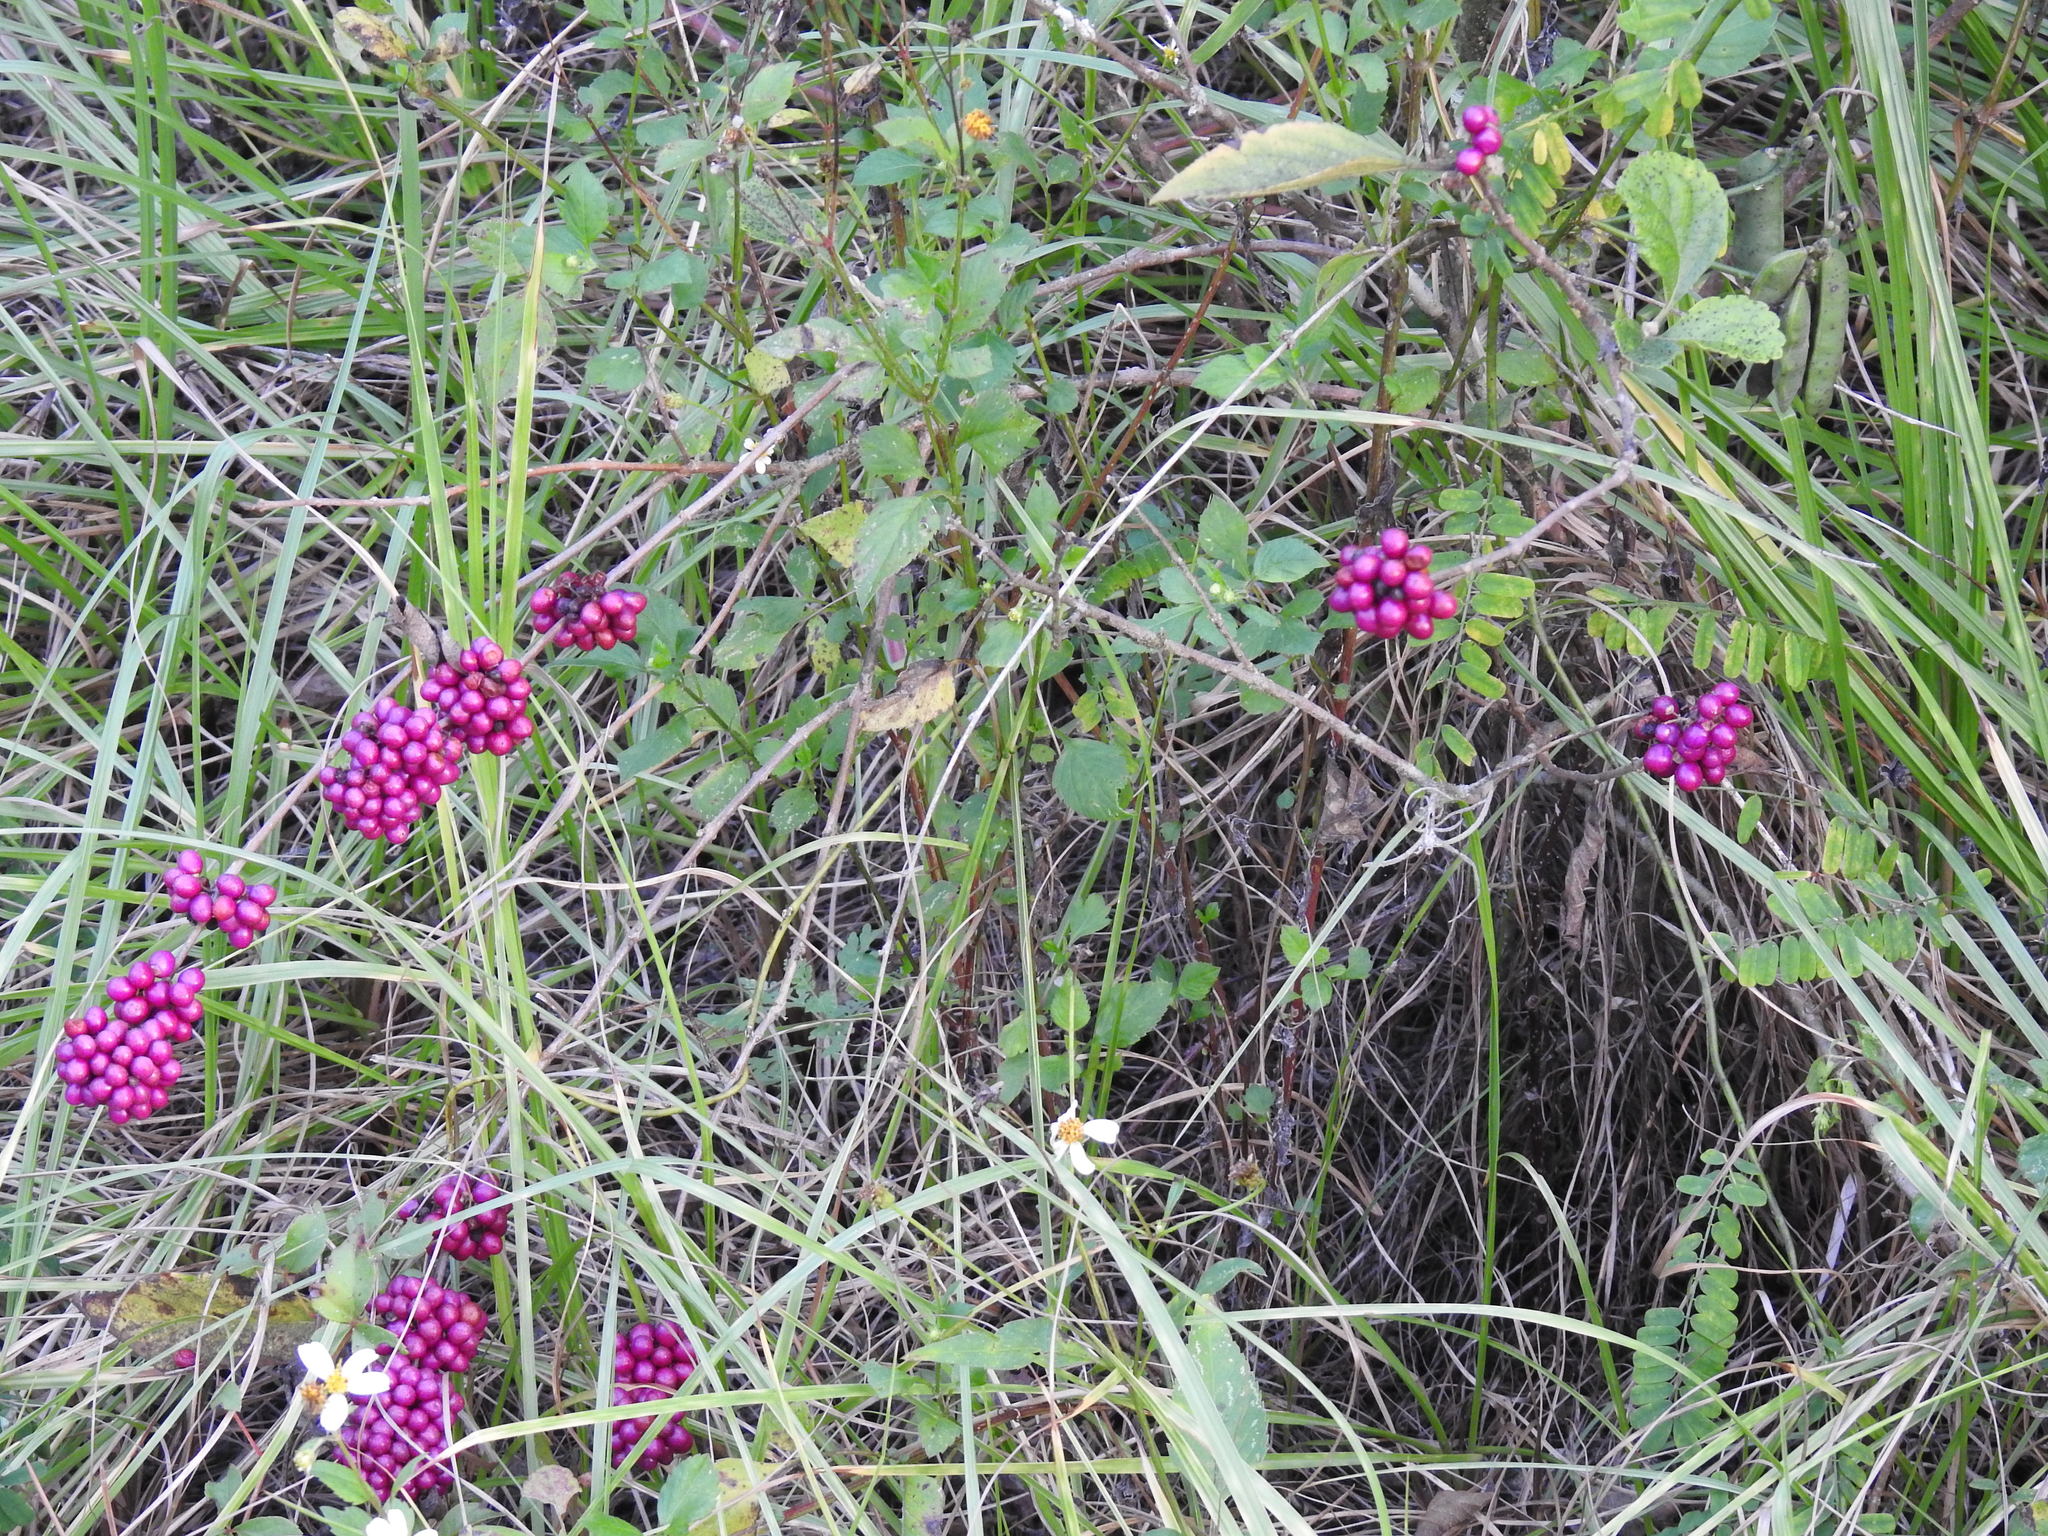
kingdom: Plantae
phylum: Tracheophyta
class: Magnoliopsida
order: Lamiales
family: Lamiaceae
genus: Callicarpa
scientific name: Callicarpa americana
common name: American beautyberry
